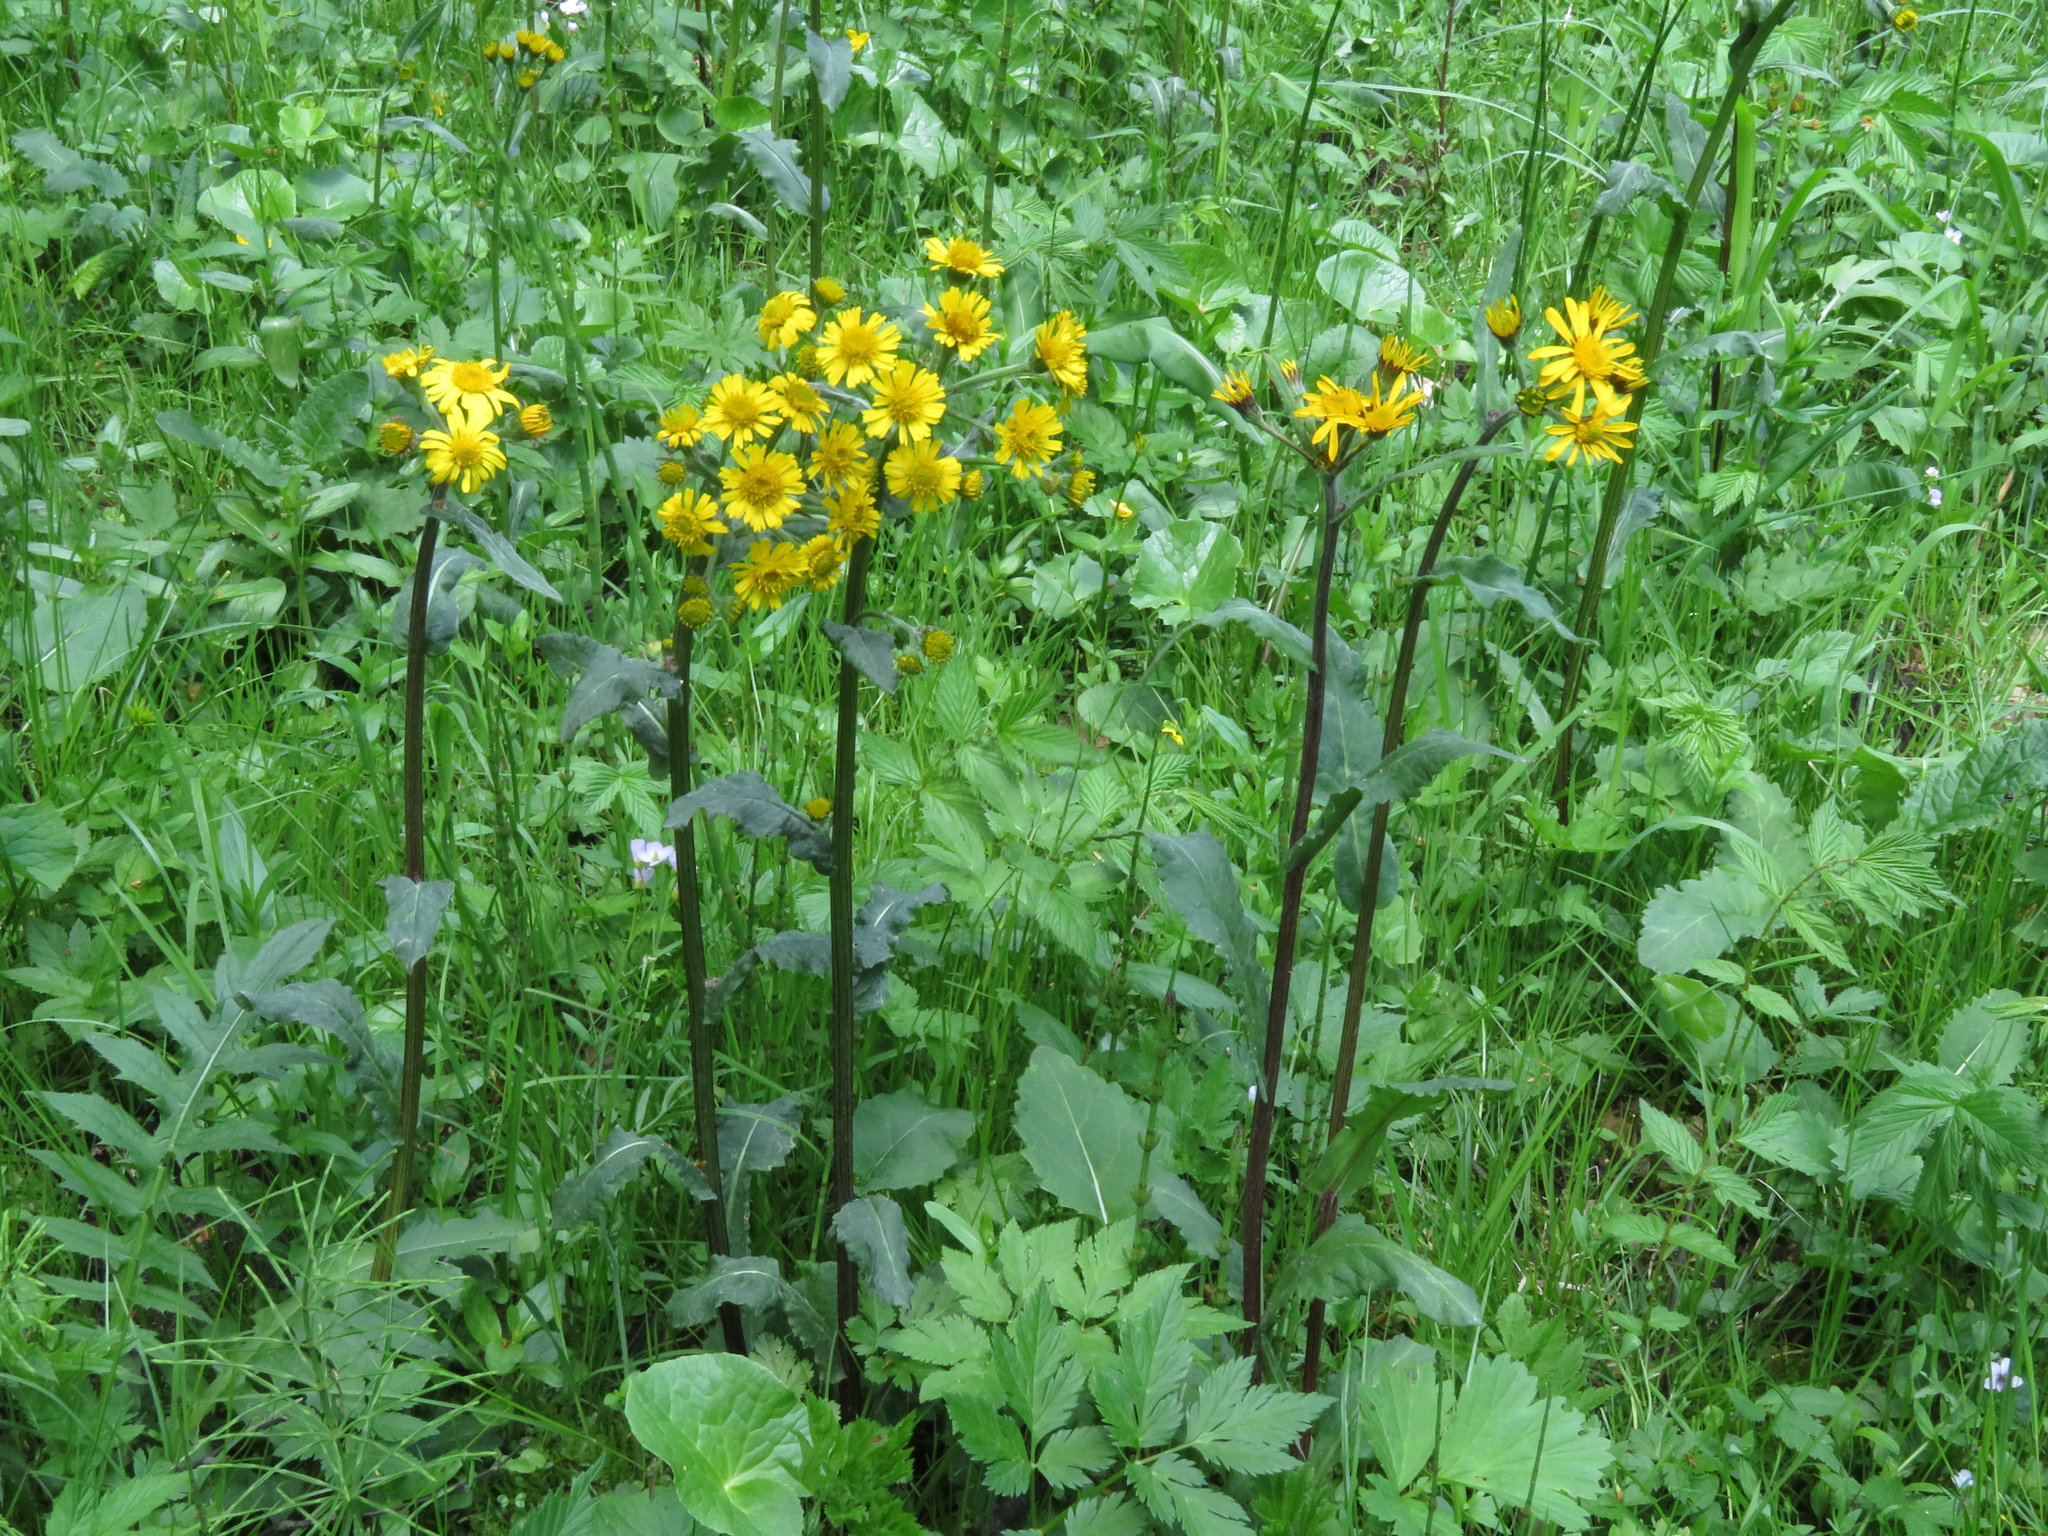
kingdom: Plantae
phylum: Tracheophyta
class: Magnoliopsida
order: Asterales
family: Asteraceae
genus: Tephroseris
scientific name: Tephroseris crispa
